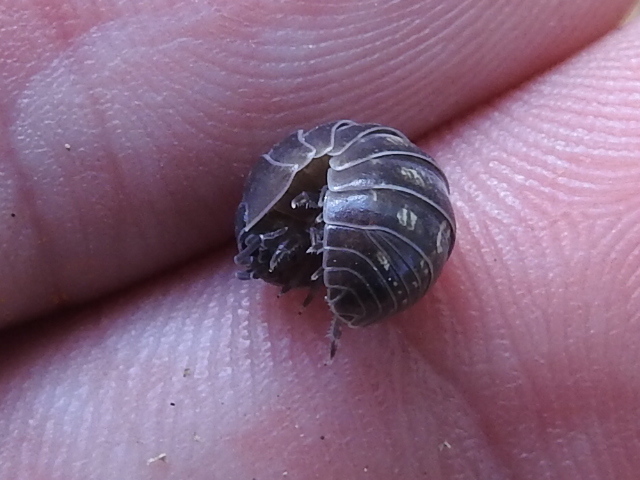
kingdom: Animalia
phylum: Arthropoda
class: Malacostraca
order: Isopoda
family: Armadillidiidae
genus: Armadillidium
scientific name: Armadillidium vulgare
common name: Common pill woodlouse
